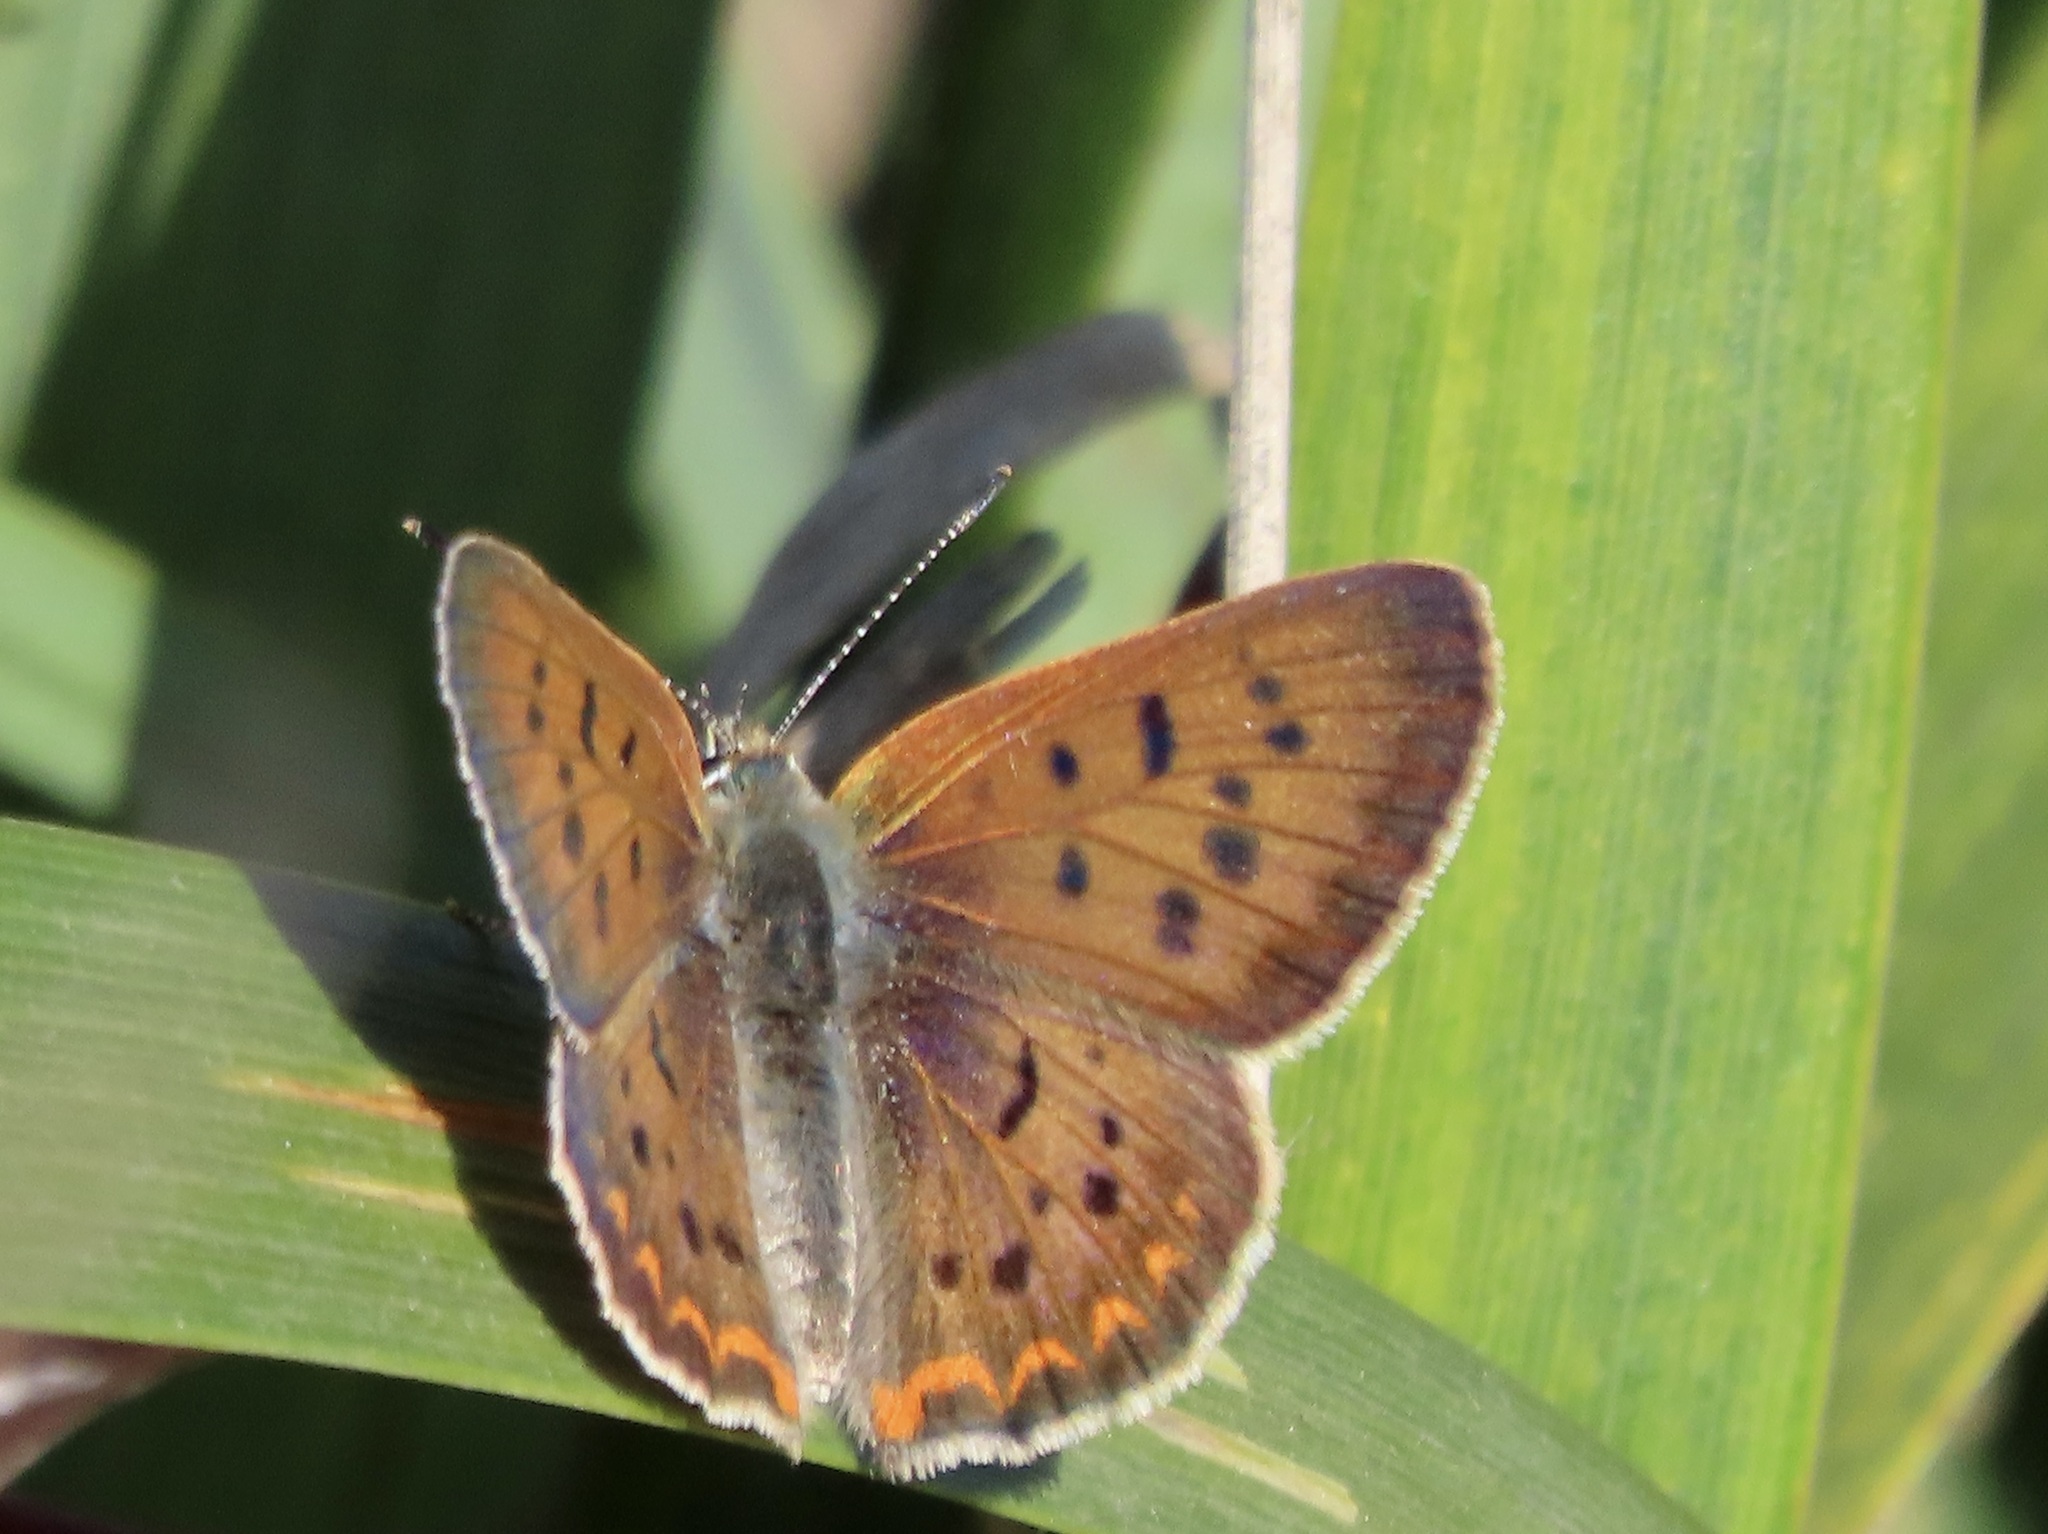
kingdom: Animalia
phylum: Arthropoda
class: Insecta
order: Lepidoptera
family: Lycaenidae
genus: Tharsalea
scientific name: Tharsalea helloides
